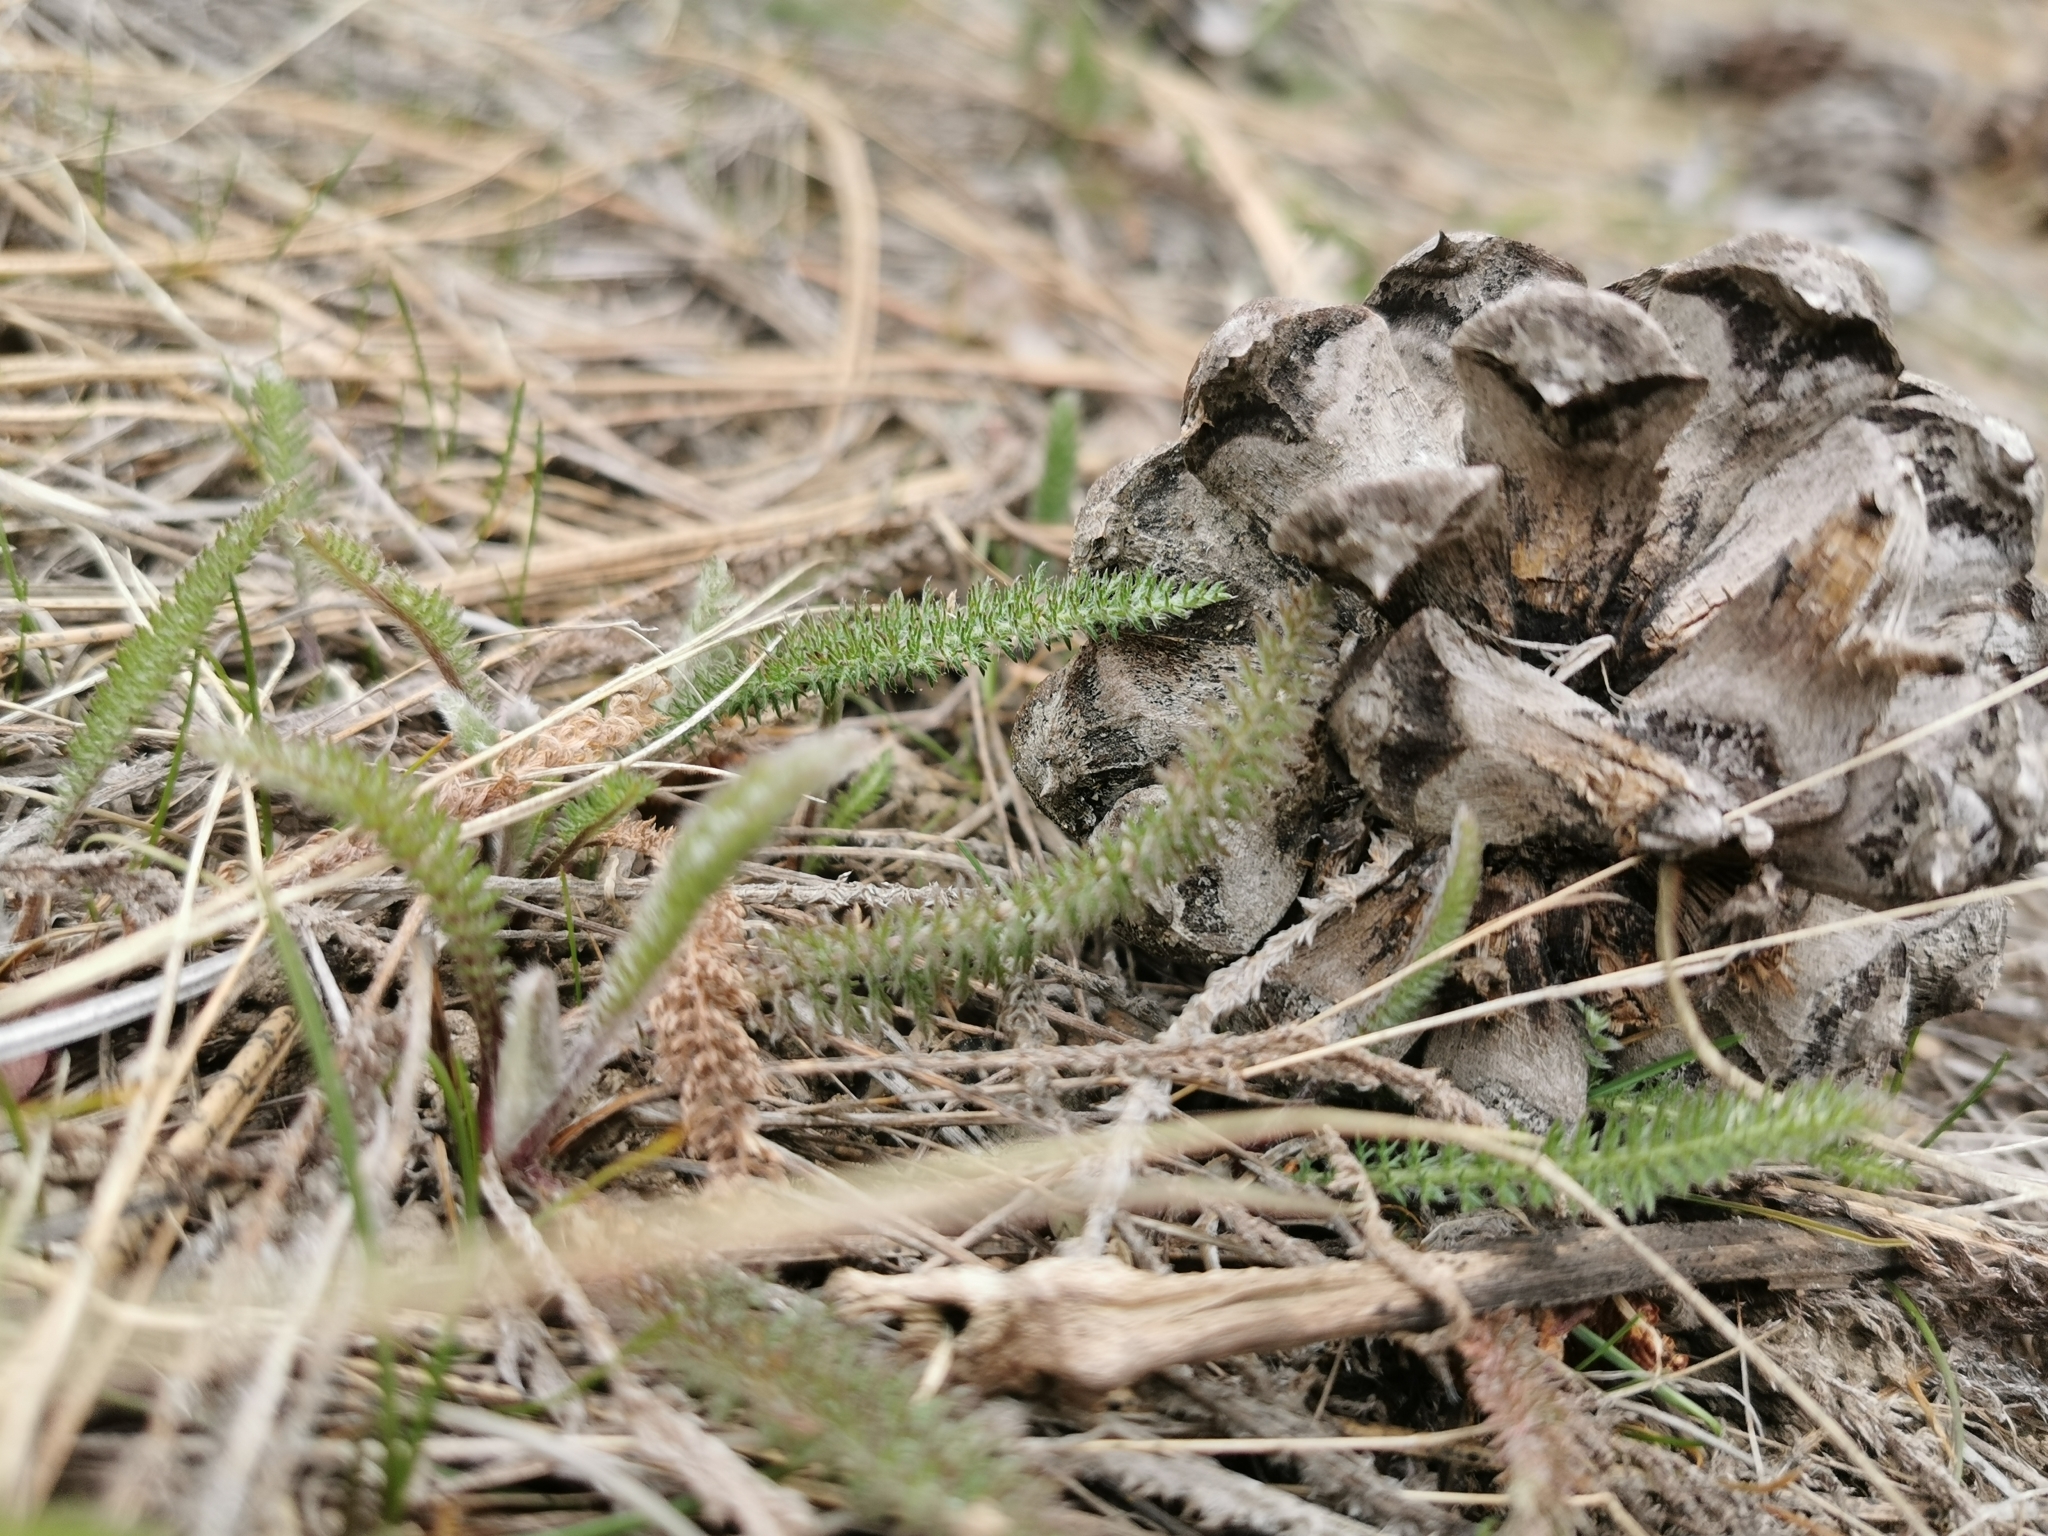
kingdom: Plantae
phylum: Tracheophyta
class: Magnoliopsida
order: Asterales
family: Asteraceae
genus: Achillea
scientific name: Achillea millefolium
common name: Yarrow
